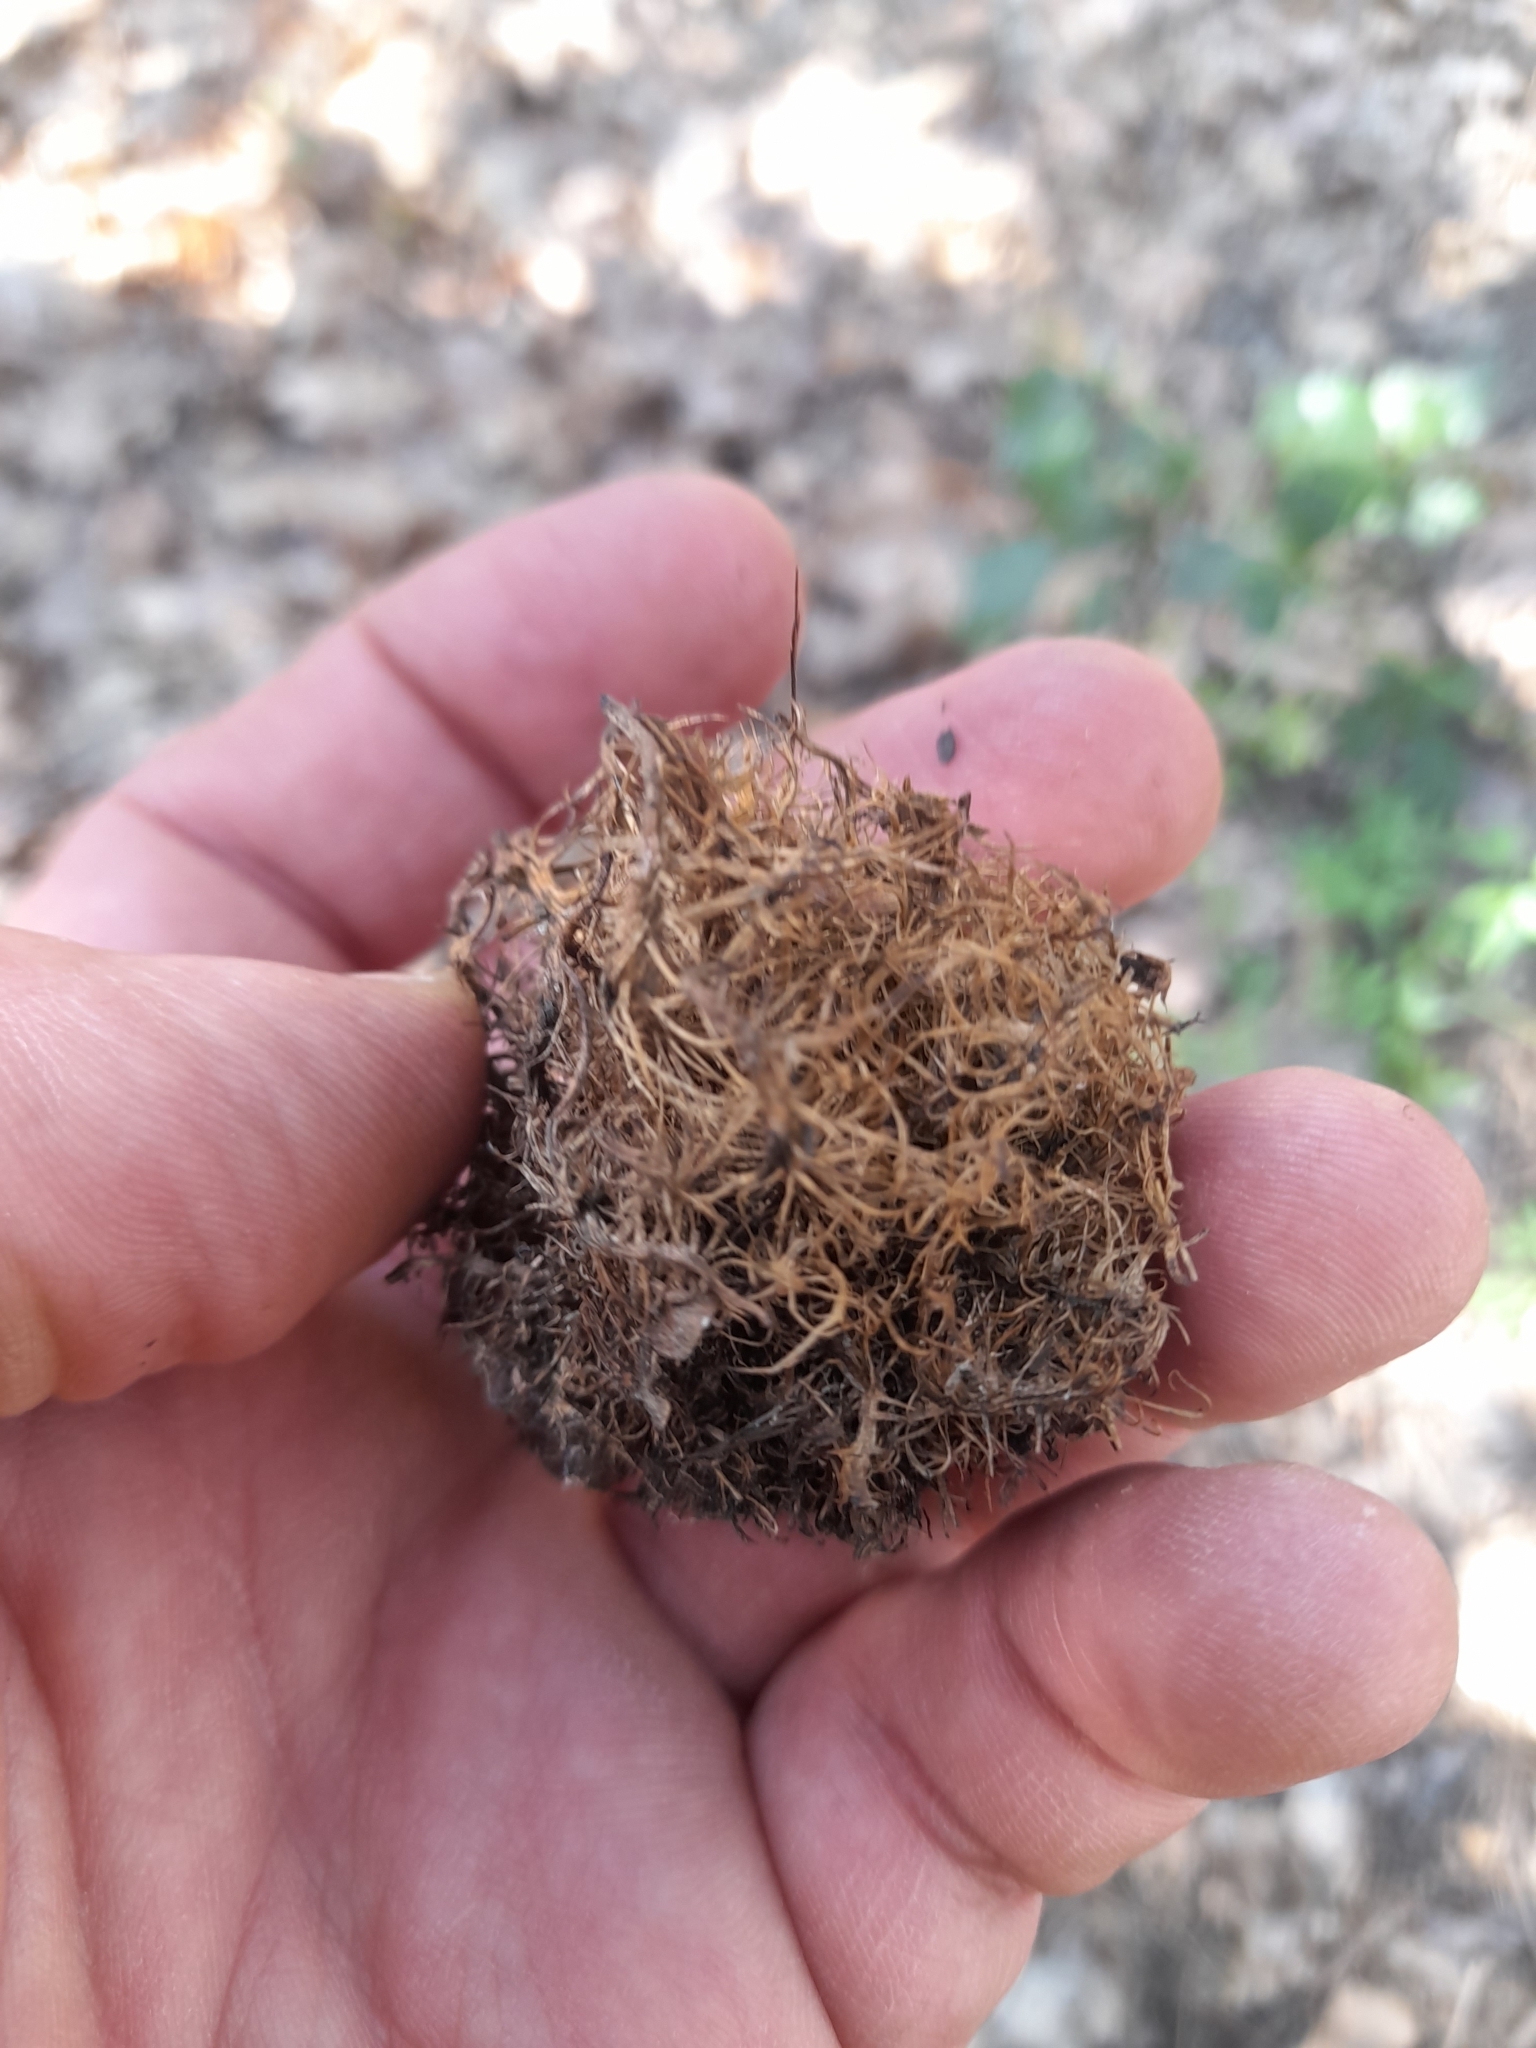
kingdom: Animalia
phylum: Arthropoda
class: Insecta
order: Hymenoptera
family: Cynipidae
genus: Andricus
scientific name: Andricus caputmedusae
